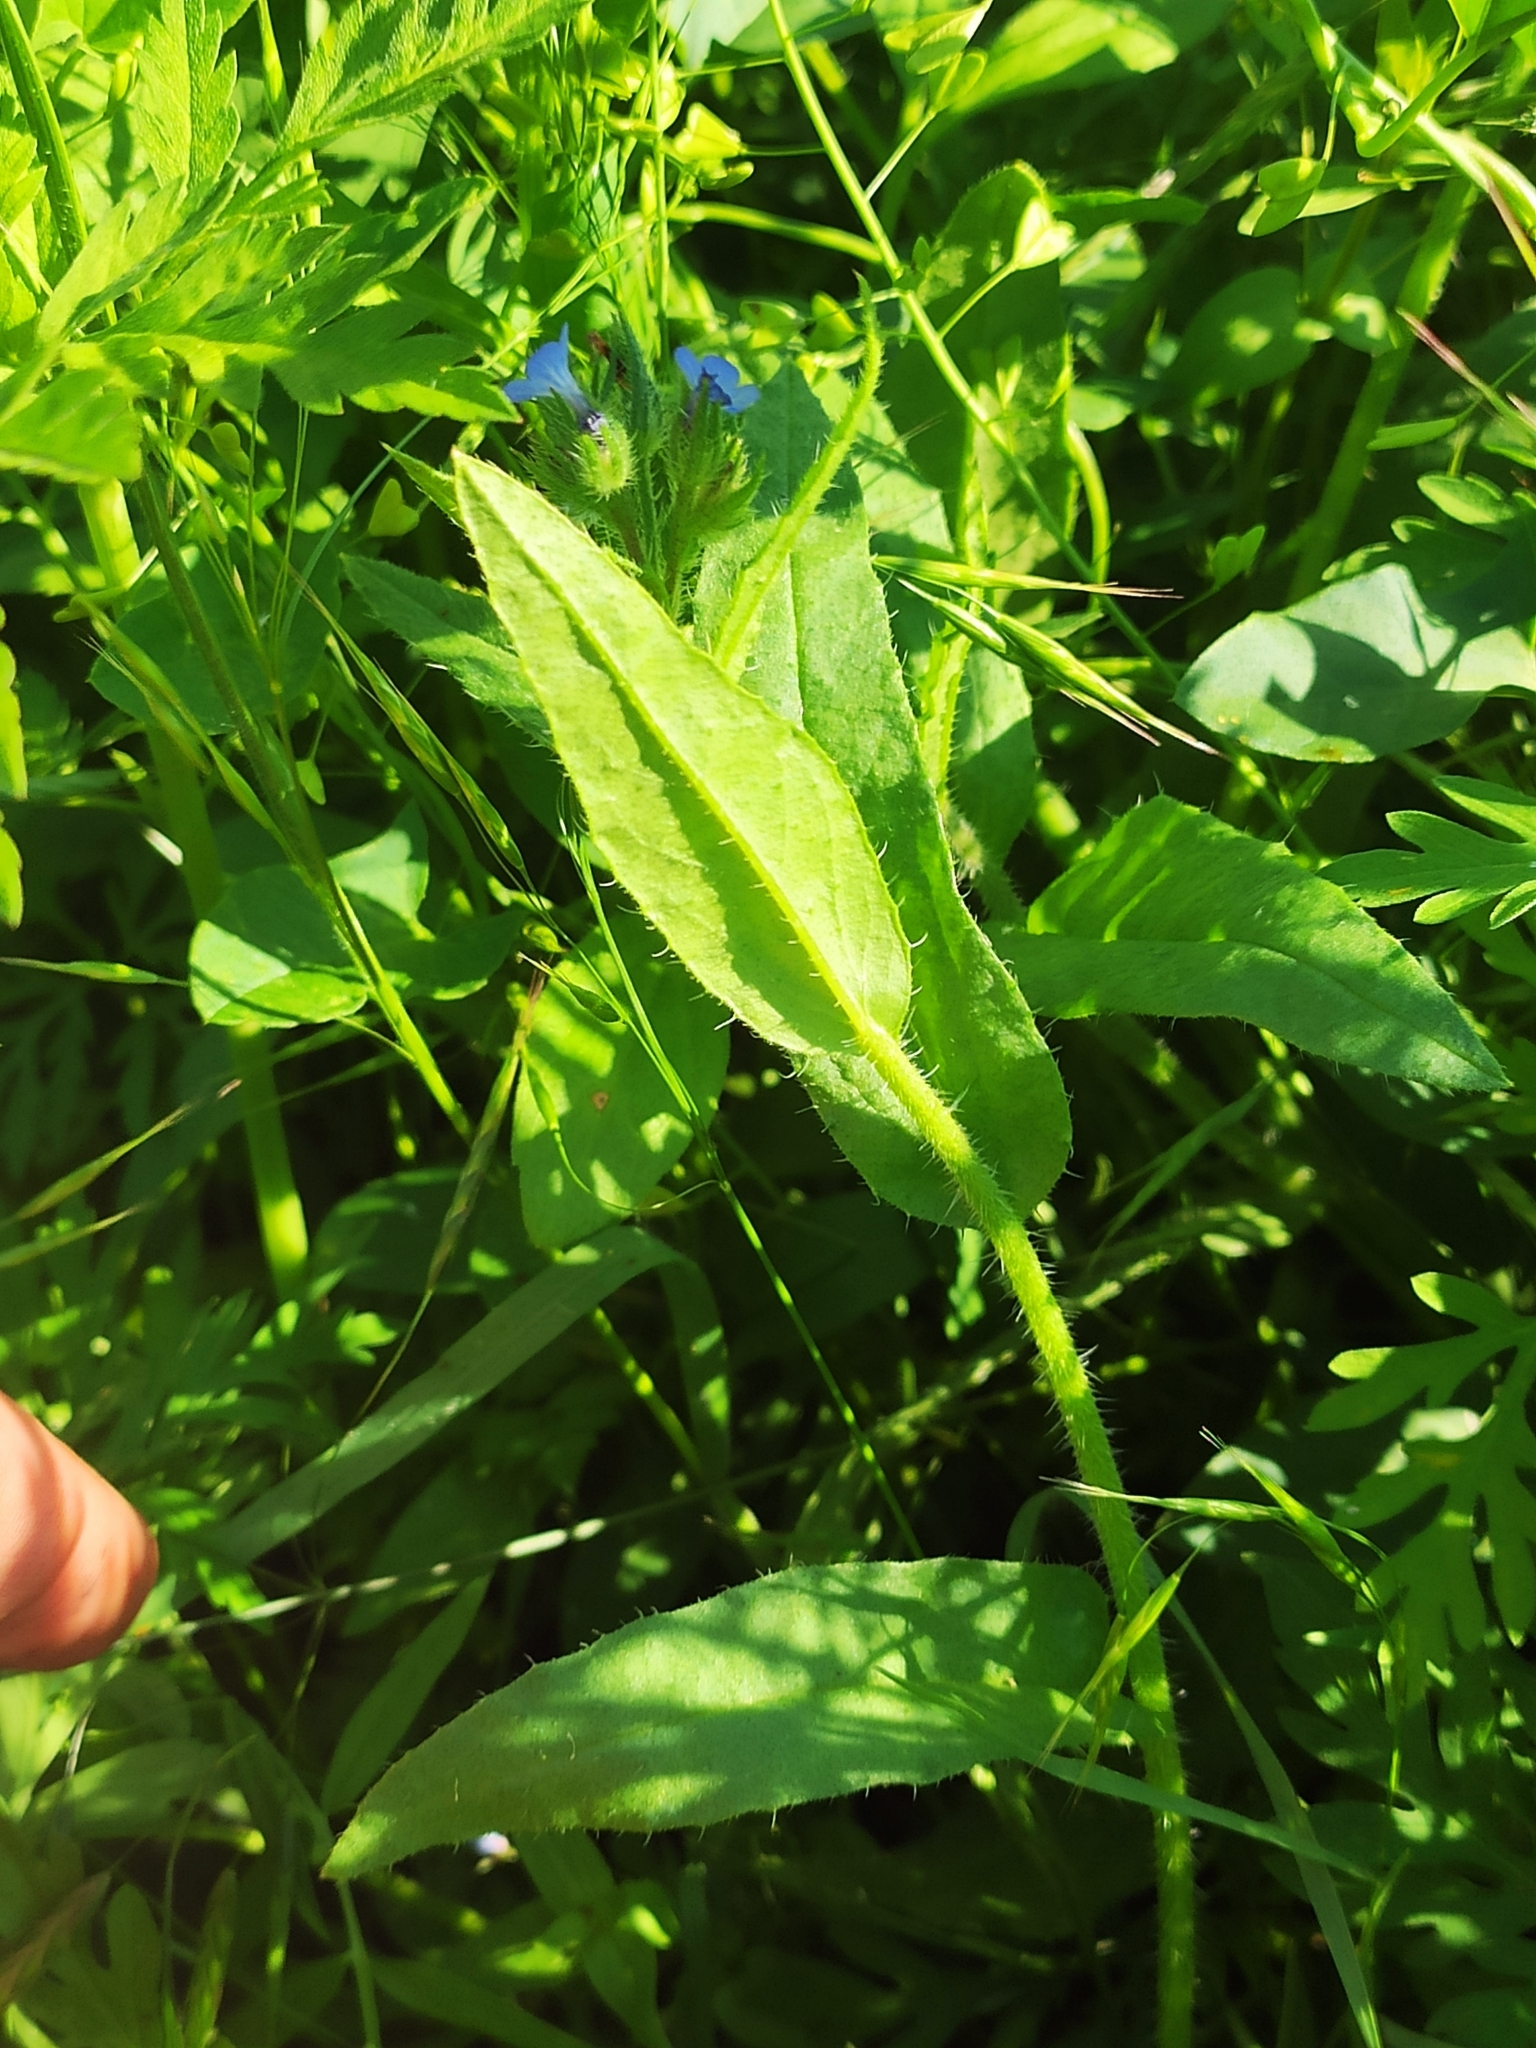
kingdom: Plantae
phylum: Tracheophyta
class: Magnoliopsida
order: Boraginales
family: Boraginaceae
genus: Lycopsis
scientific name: Lycopsis arvensis
